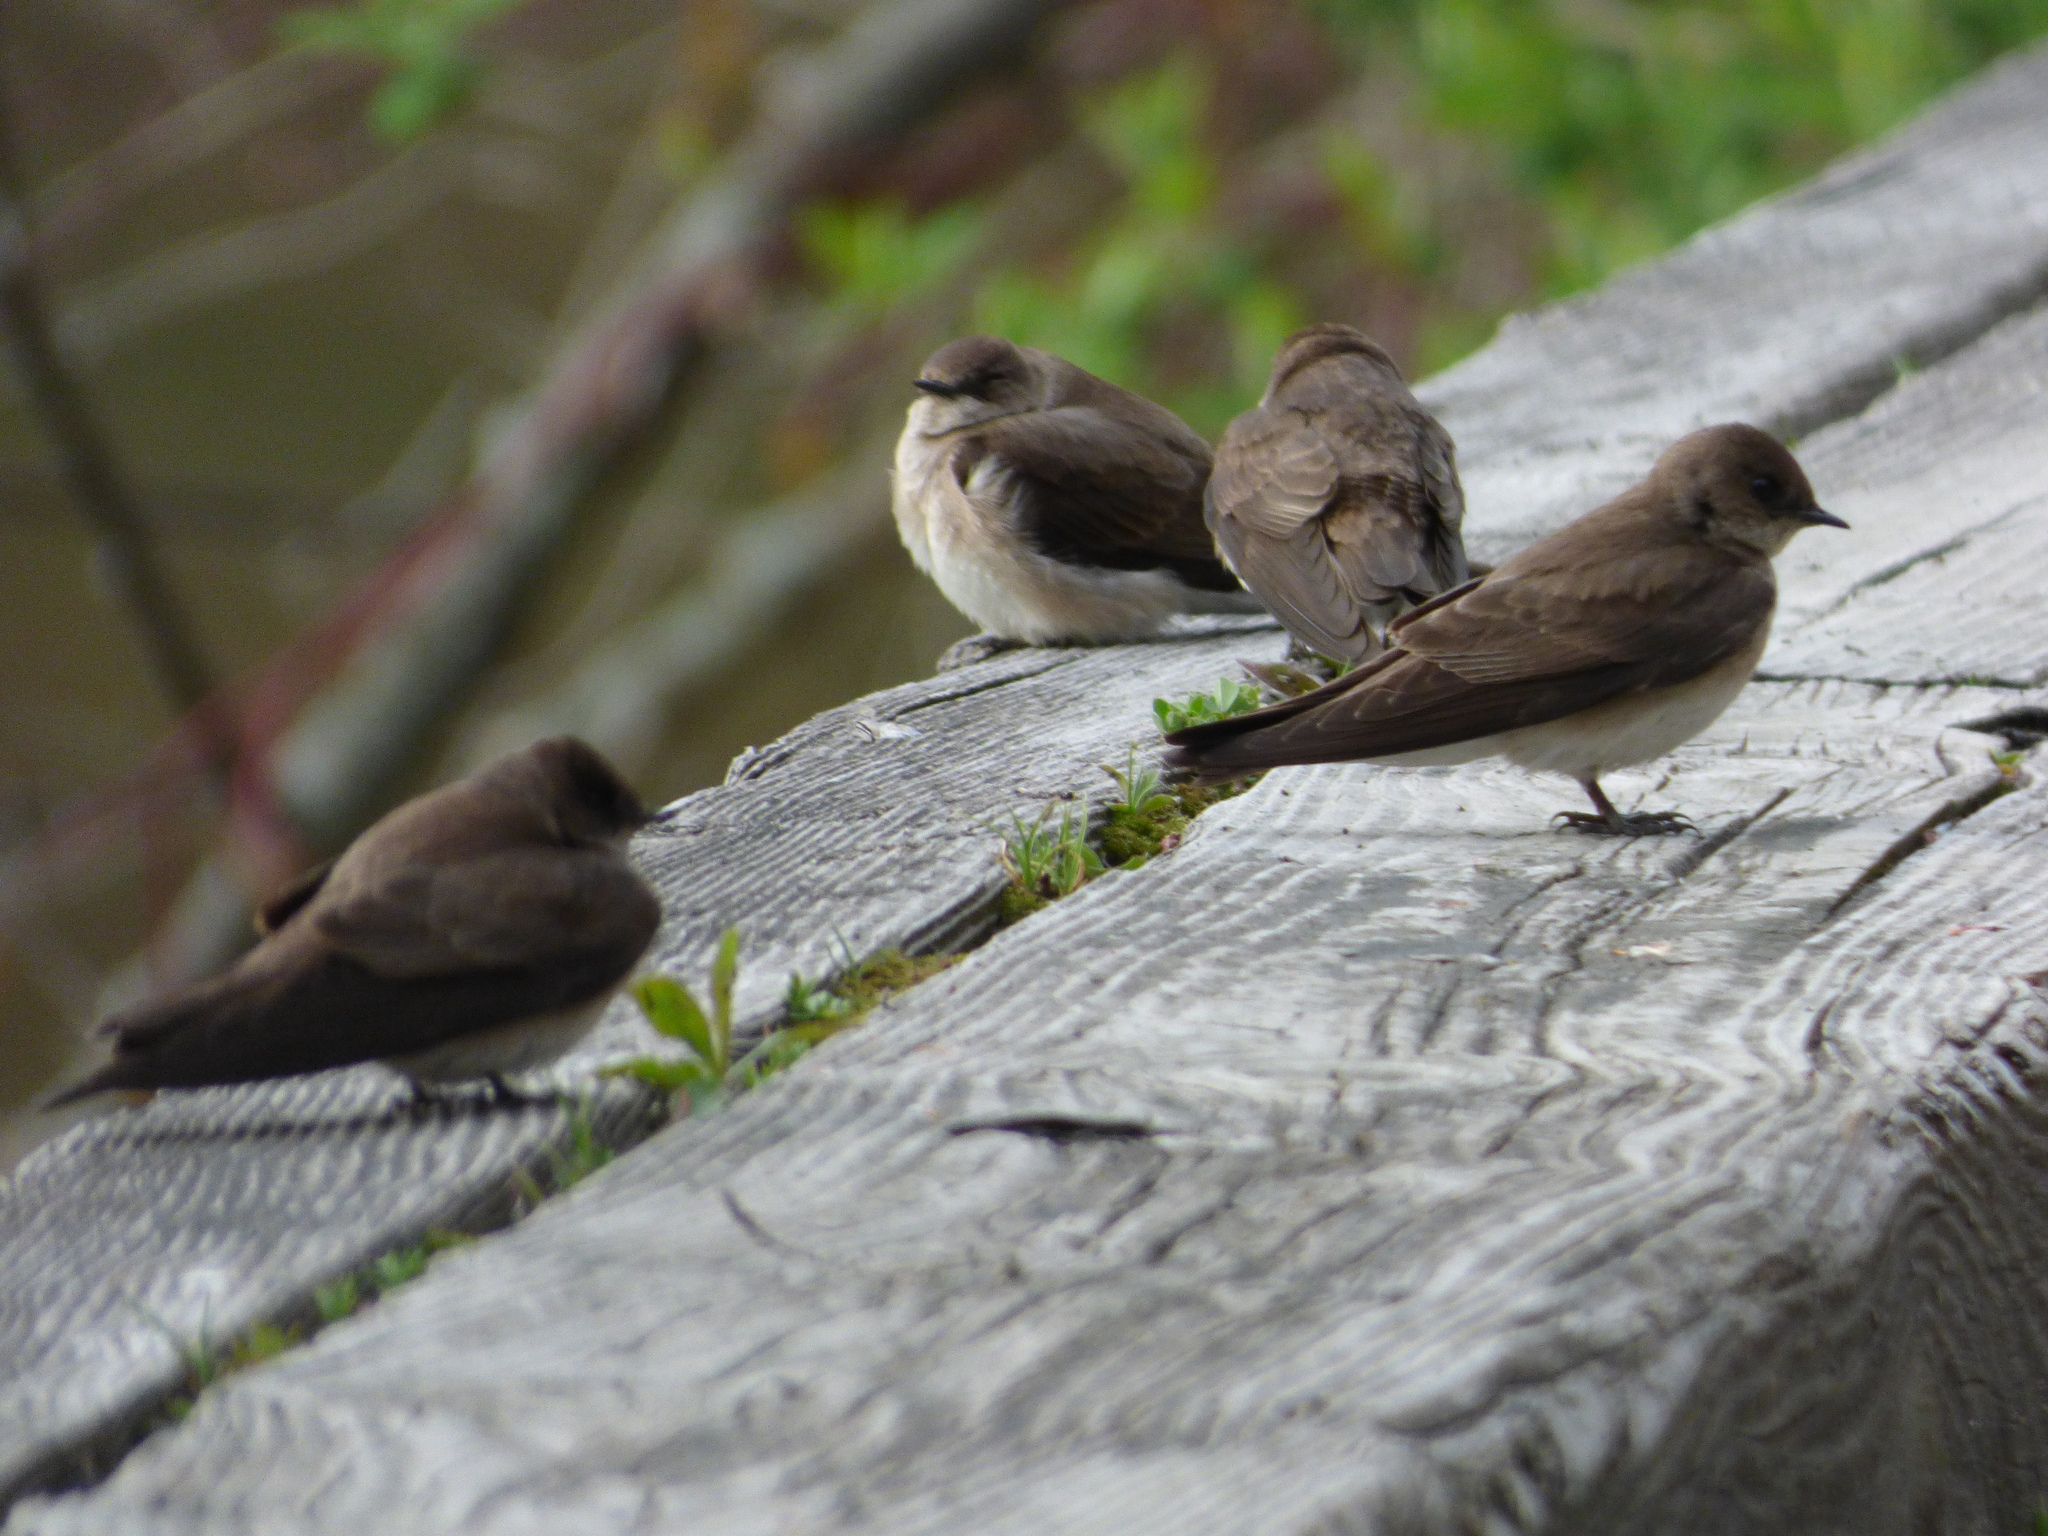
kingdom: Animalia
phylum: Chordata
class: Aves
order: Passeriformes
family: Hirundinidae
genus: Stelgidopteryx
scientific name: Stelgidopteryx serripennis
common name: Northern rough-winged swallow
